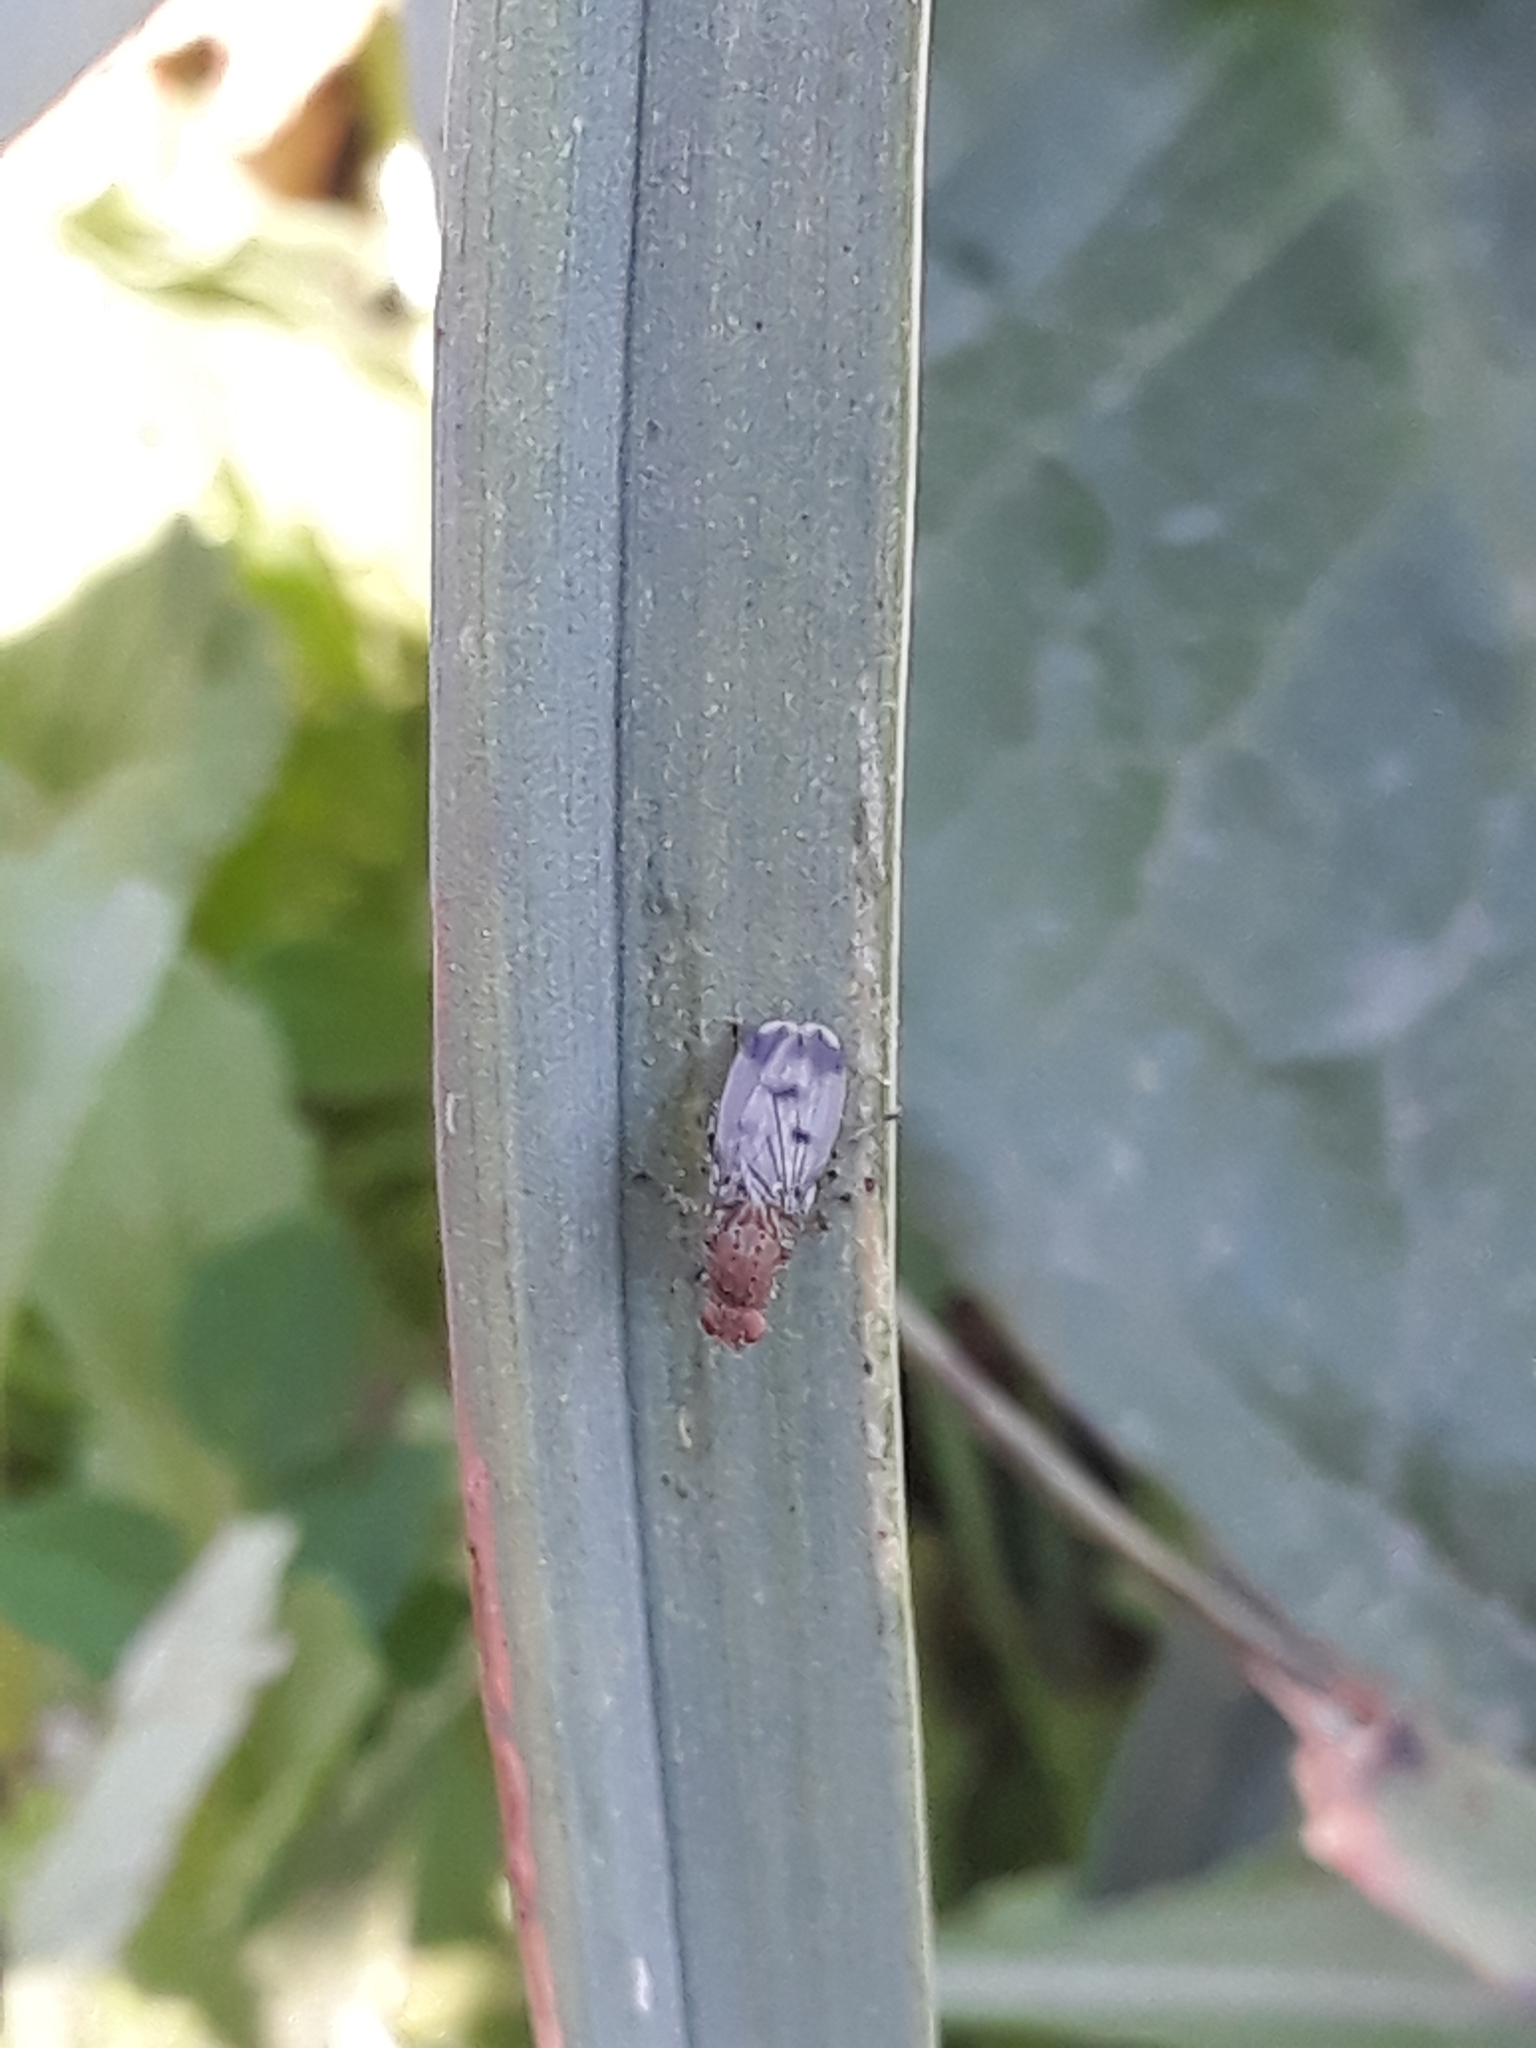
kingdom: Animalia
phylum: Arthropoda
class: Insecta
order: Diptera
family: Heleomyzidae
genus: Suillia
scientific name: Suillia variegata
